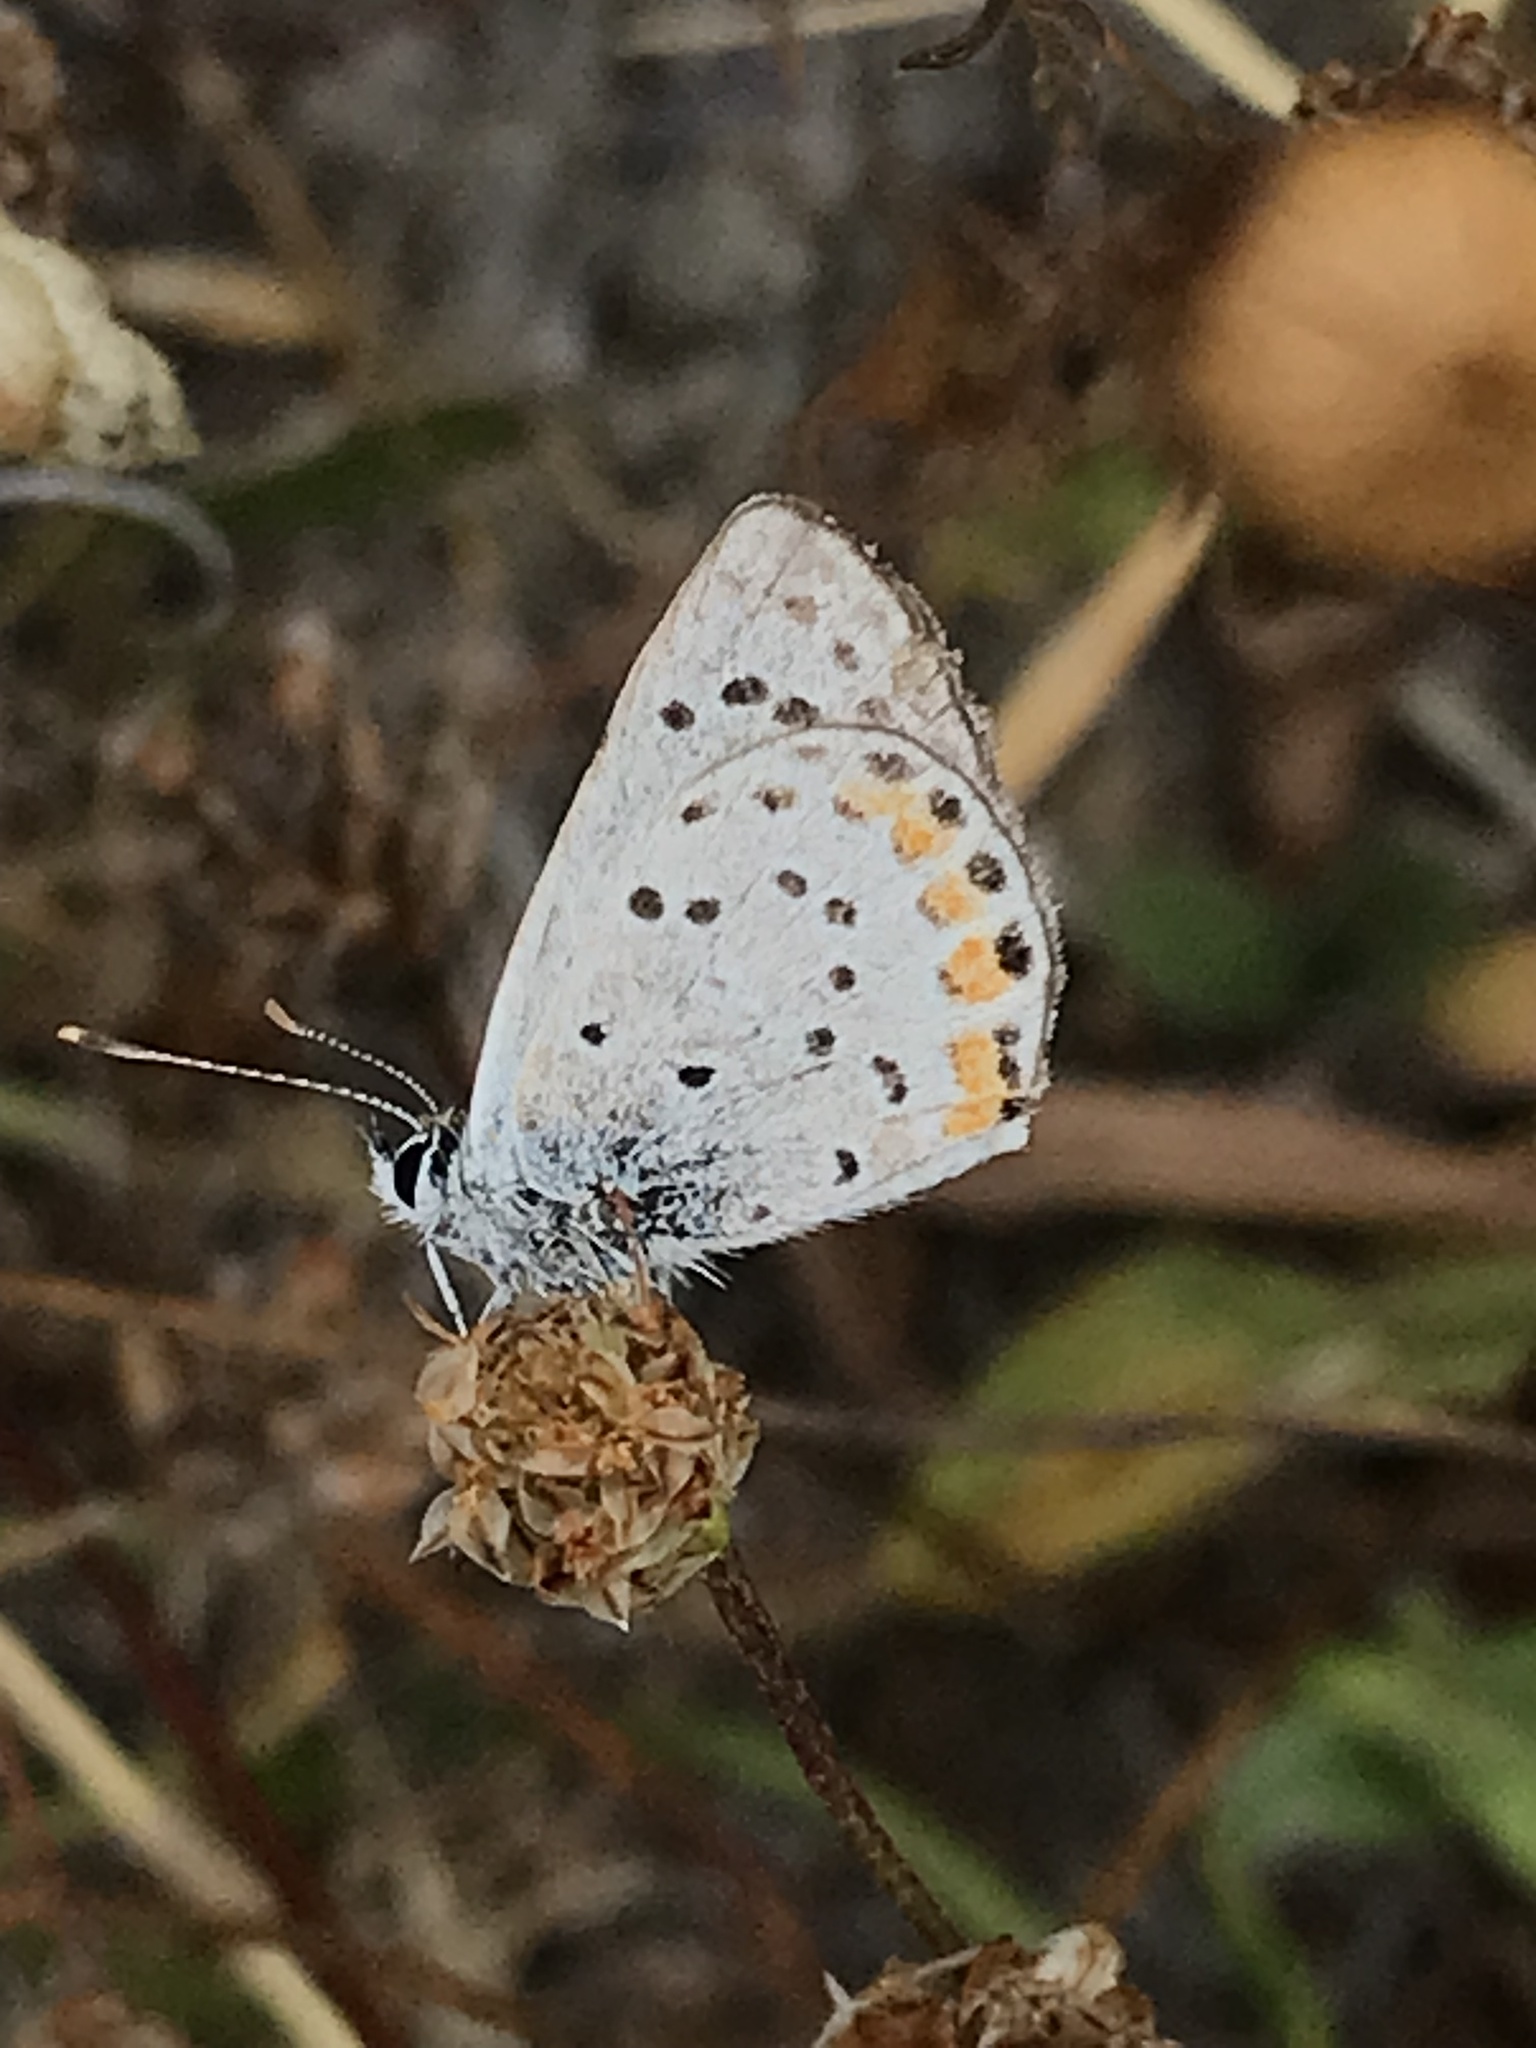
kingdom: Animalia
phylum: Arthropoda
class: Insecta
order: Lepidoptera
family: Lycaenidae
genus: Icaricia
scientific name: Icaricia acmon
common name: Acmon blue
